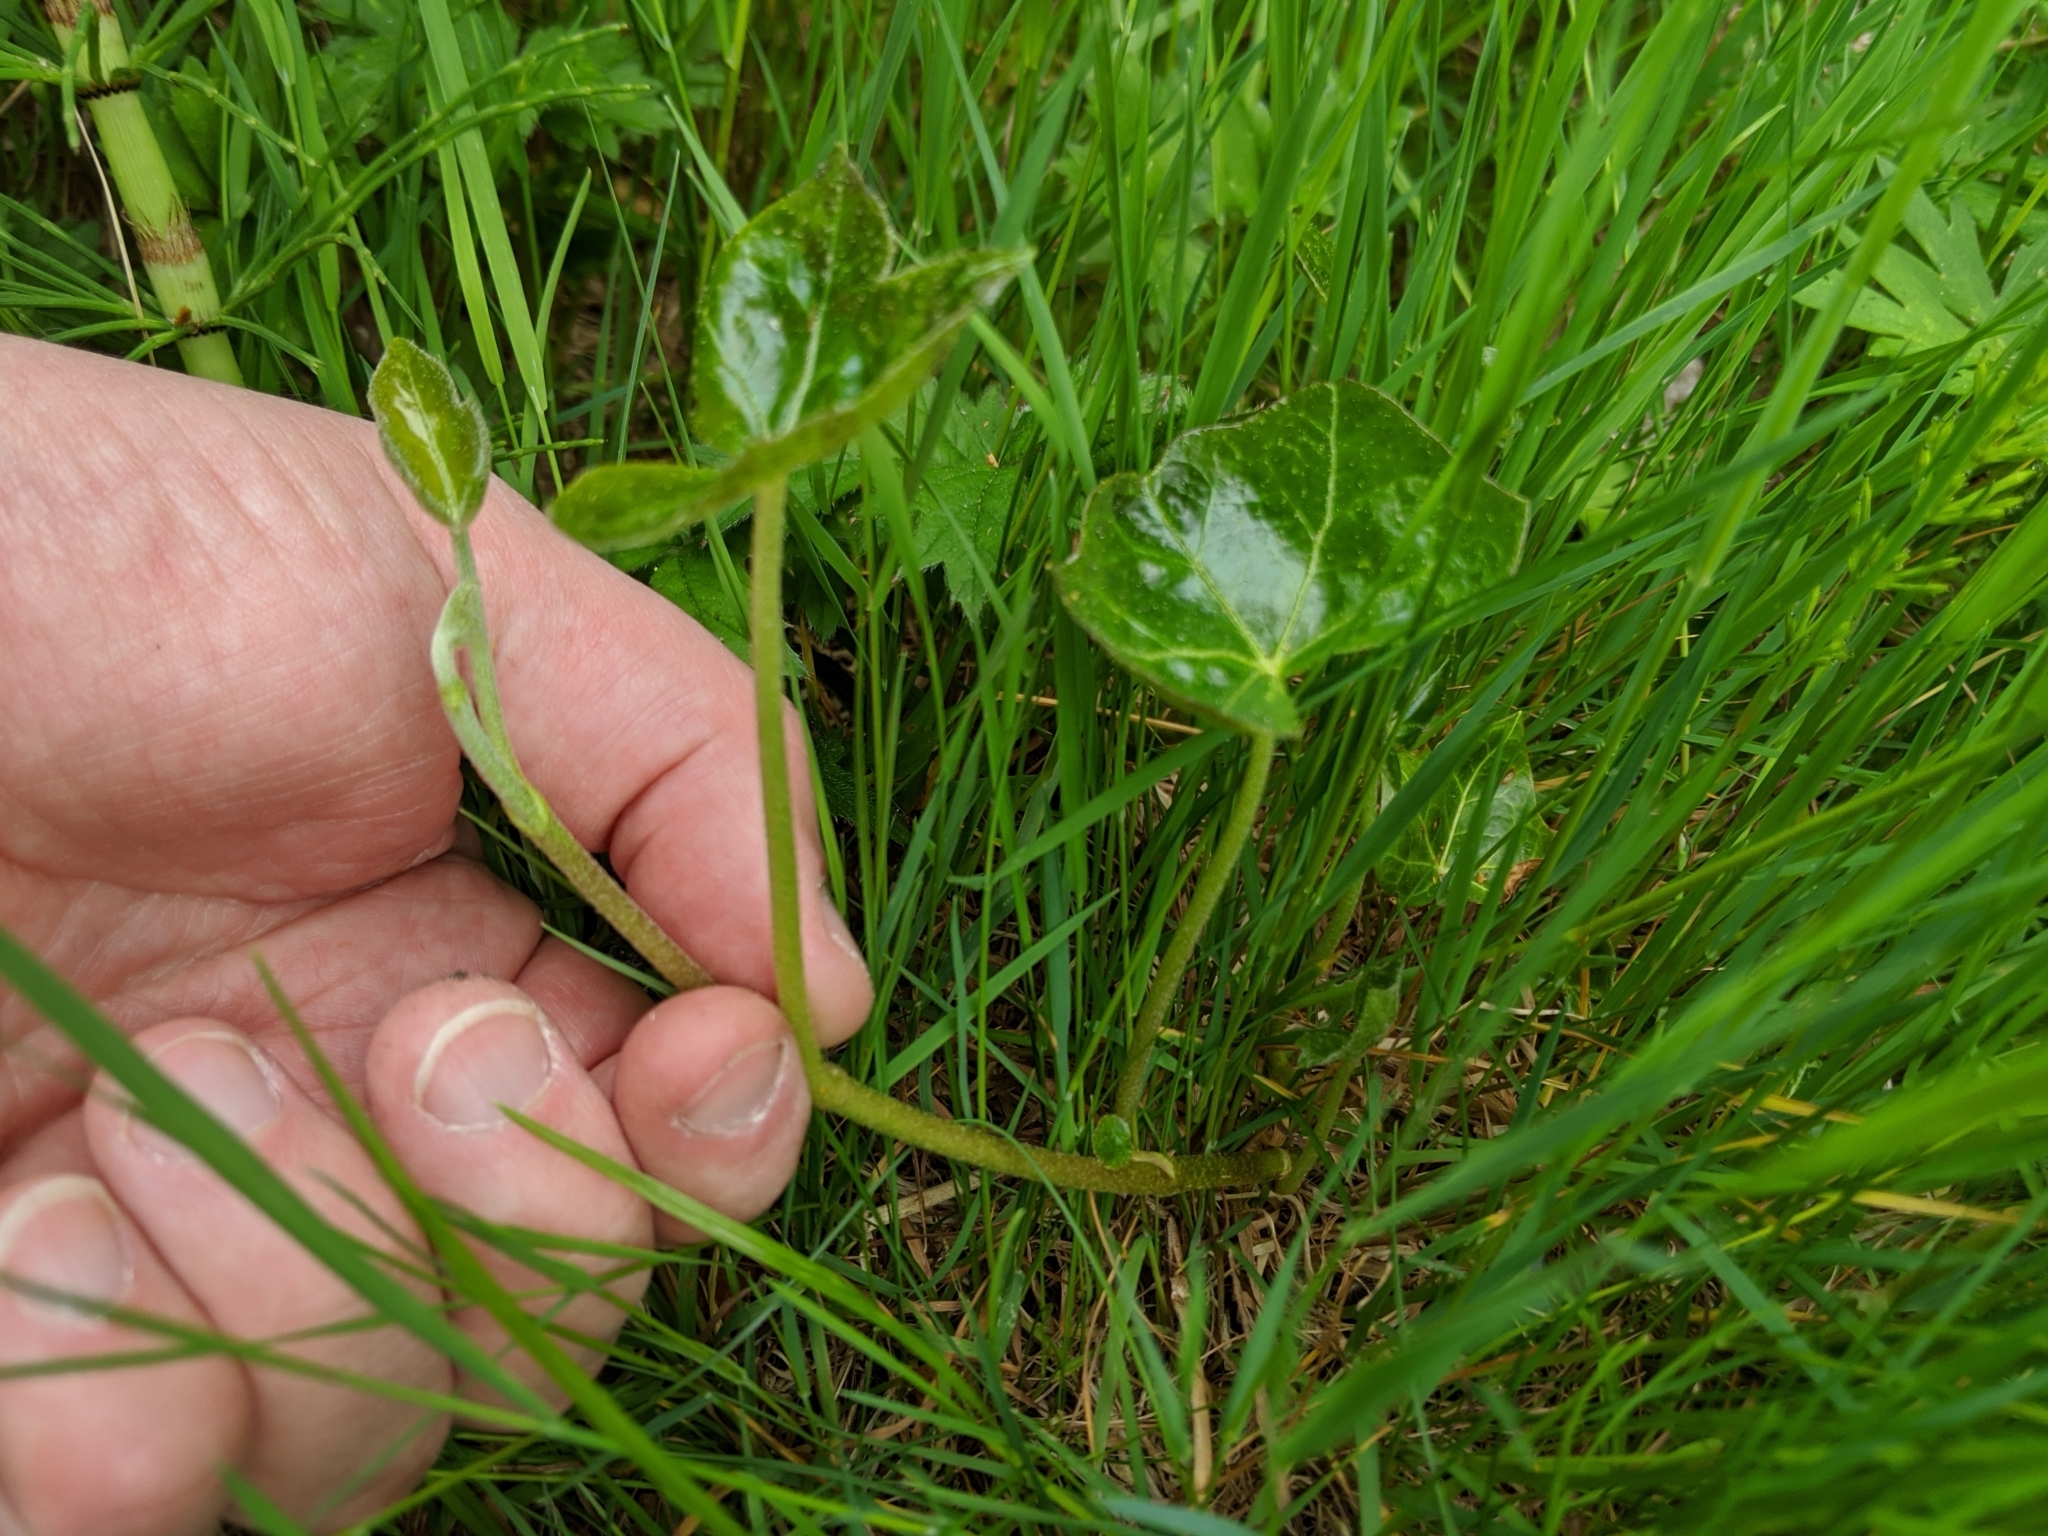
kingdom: Plantae
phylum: Tracheophyta
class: Magnoliopsida
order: Apiales
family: Araliaceae
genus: Hedera
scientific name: Hedera helix
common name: Ivy
